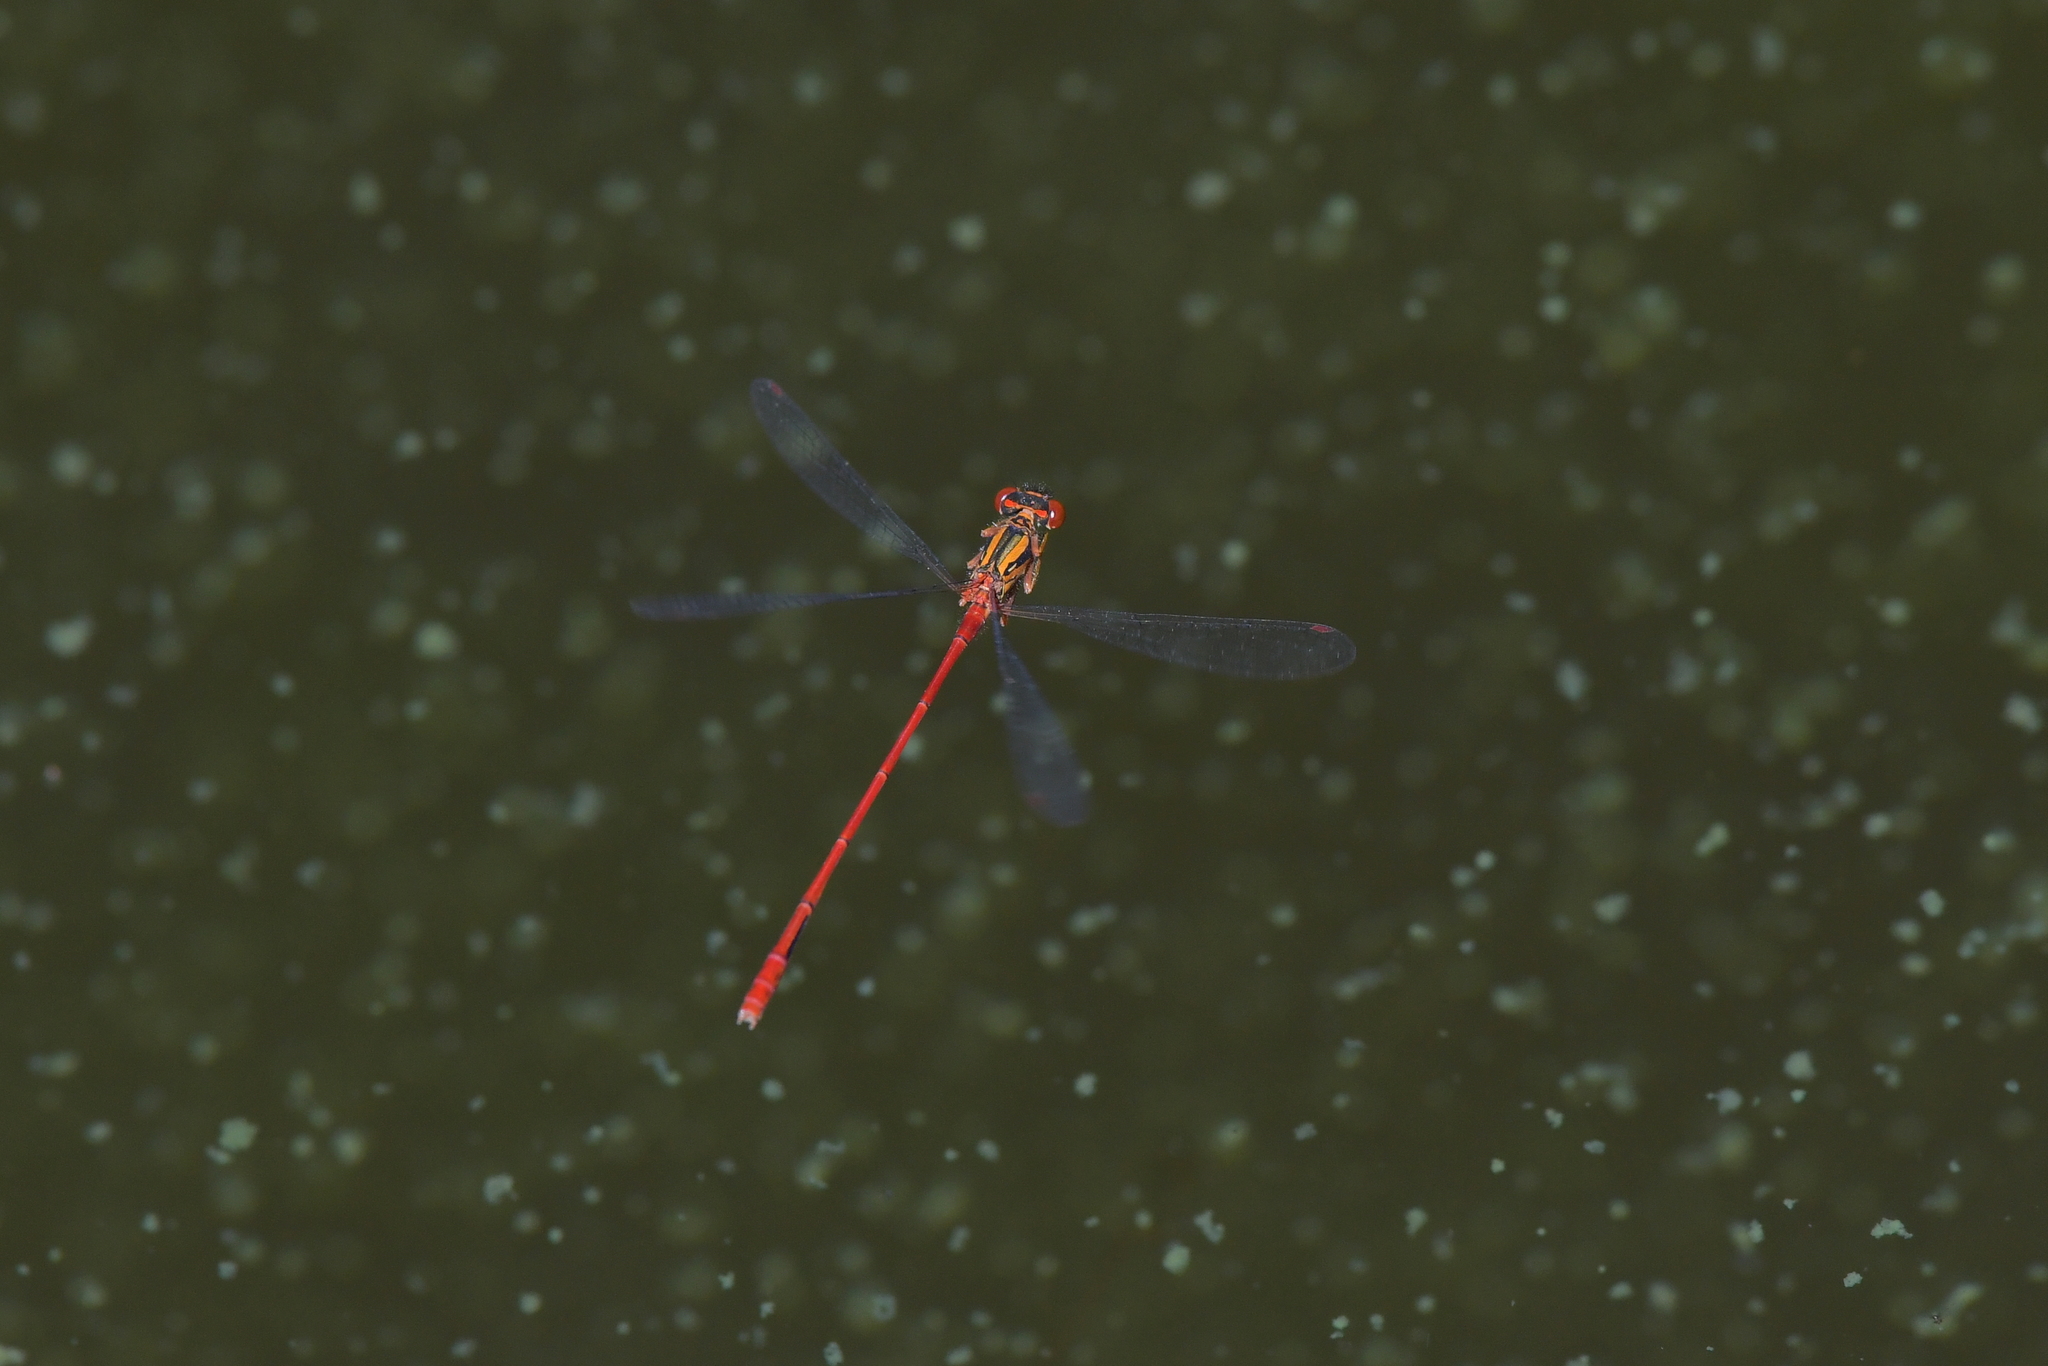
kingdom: Animalia
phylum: Arthropoda
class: Insecta
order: Odonata
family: Coenagrionidae
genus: Xanthocnemis
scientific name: Xanthocnemis zealandica
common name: Common redcoat damselfly
